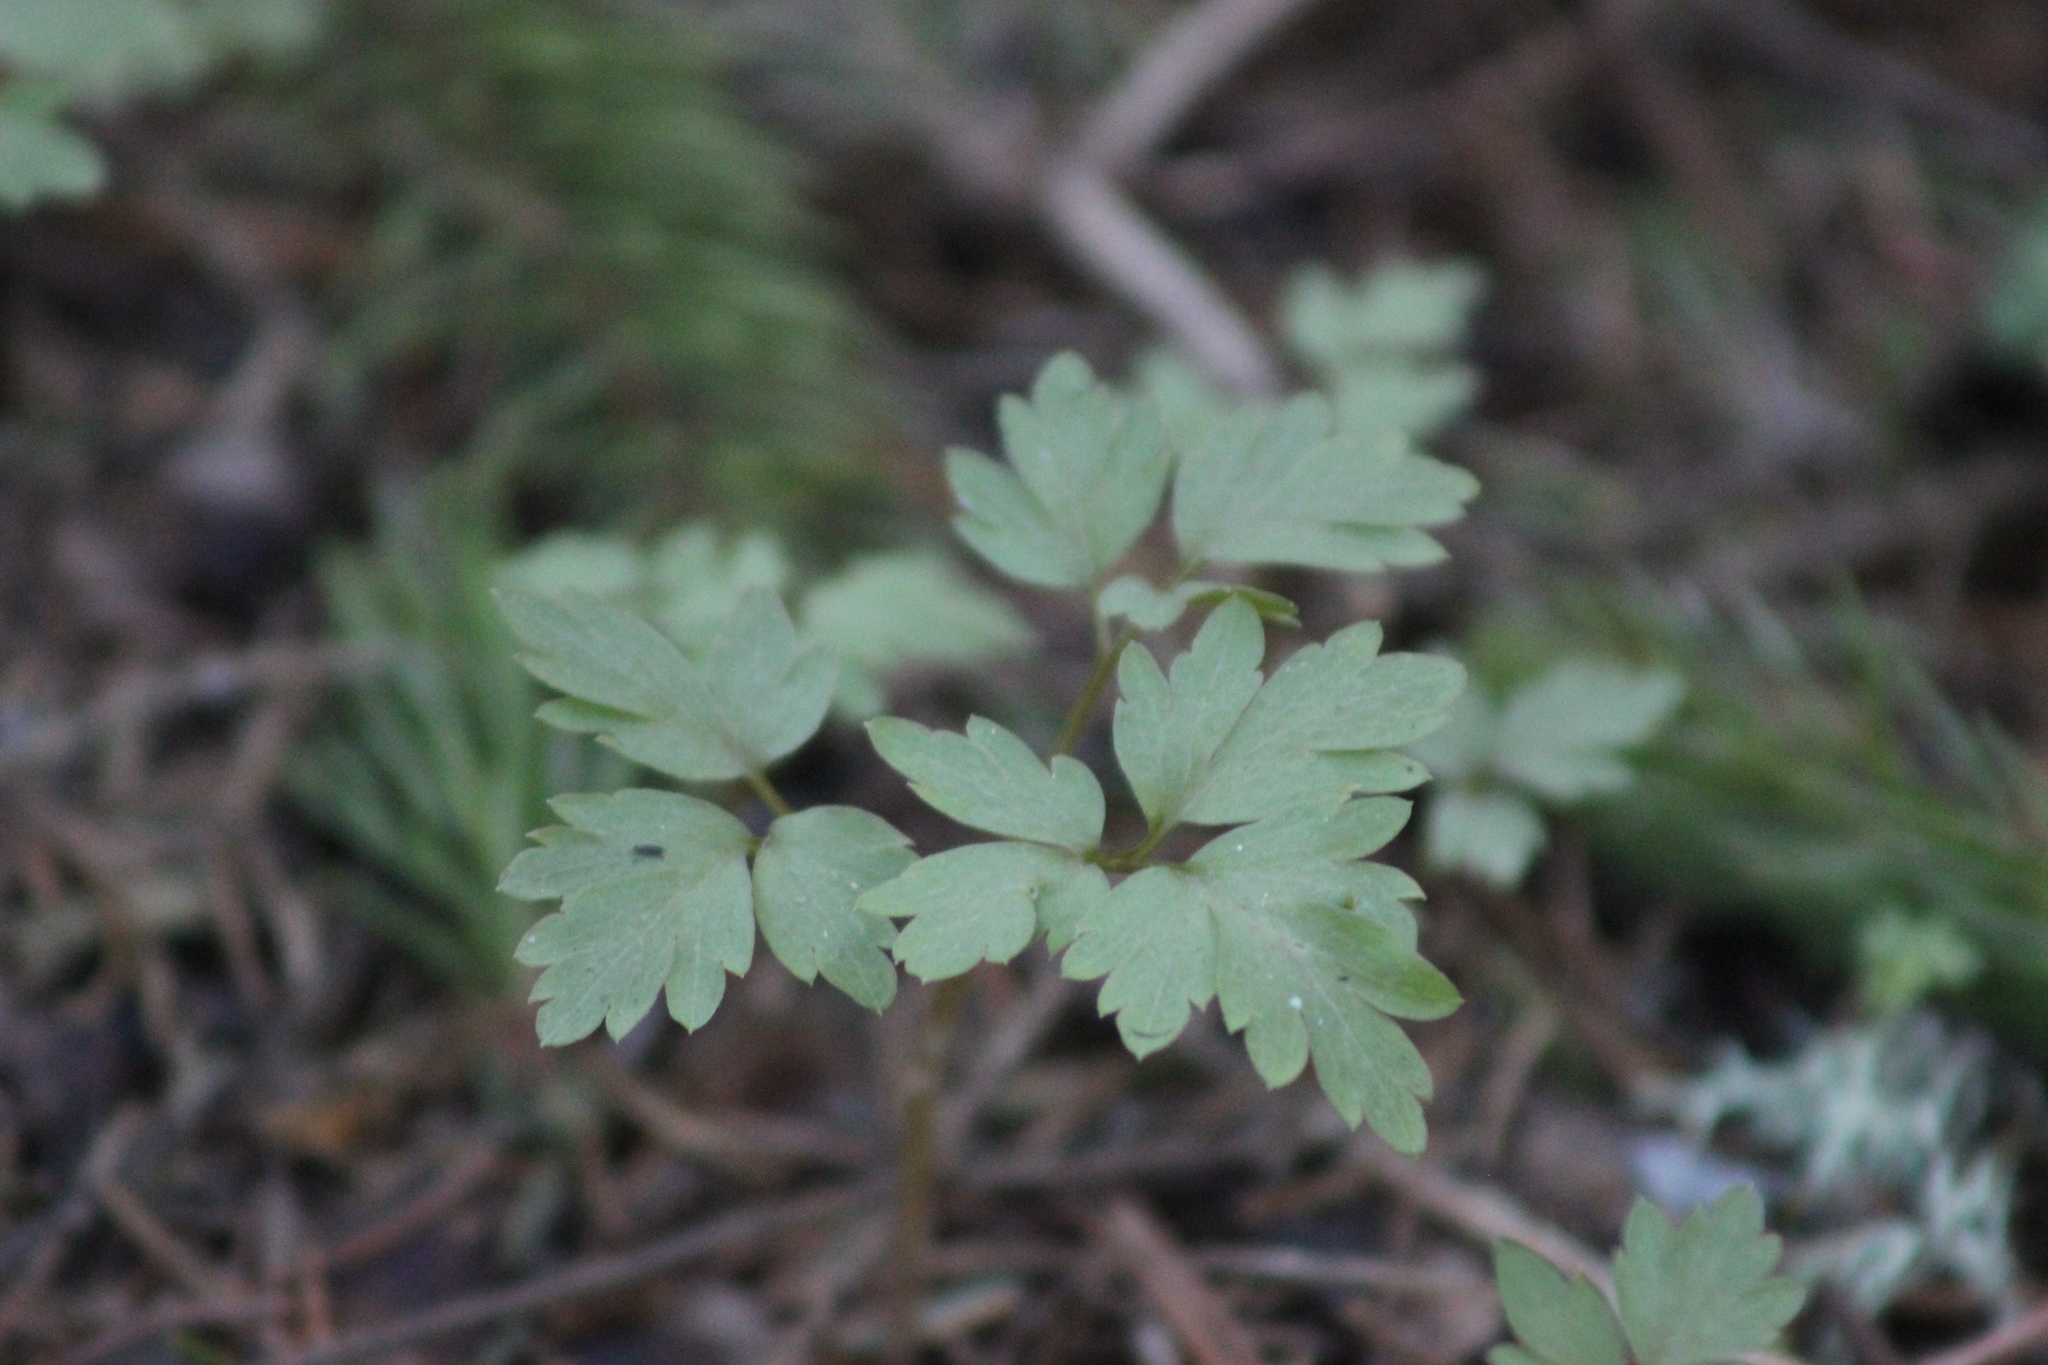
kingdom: Plantae
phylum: Tracheophyta
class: Magnoliopsida
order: Dipsacales
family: Viburnaceae
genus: Adoxa
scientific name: Adoxa moschatellina
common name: Moschatel
